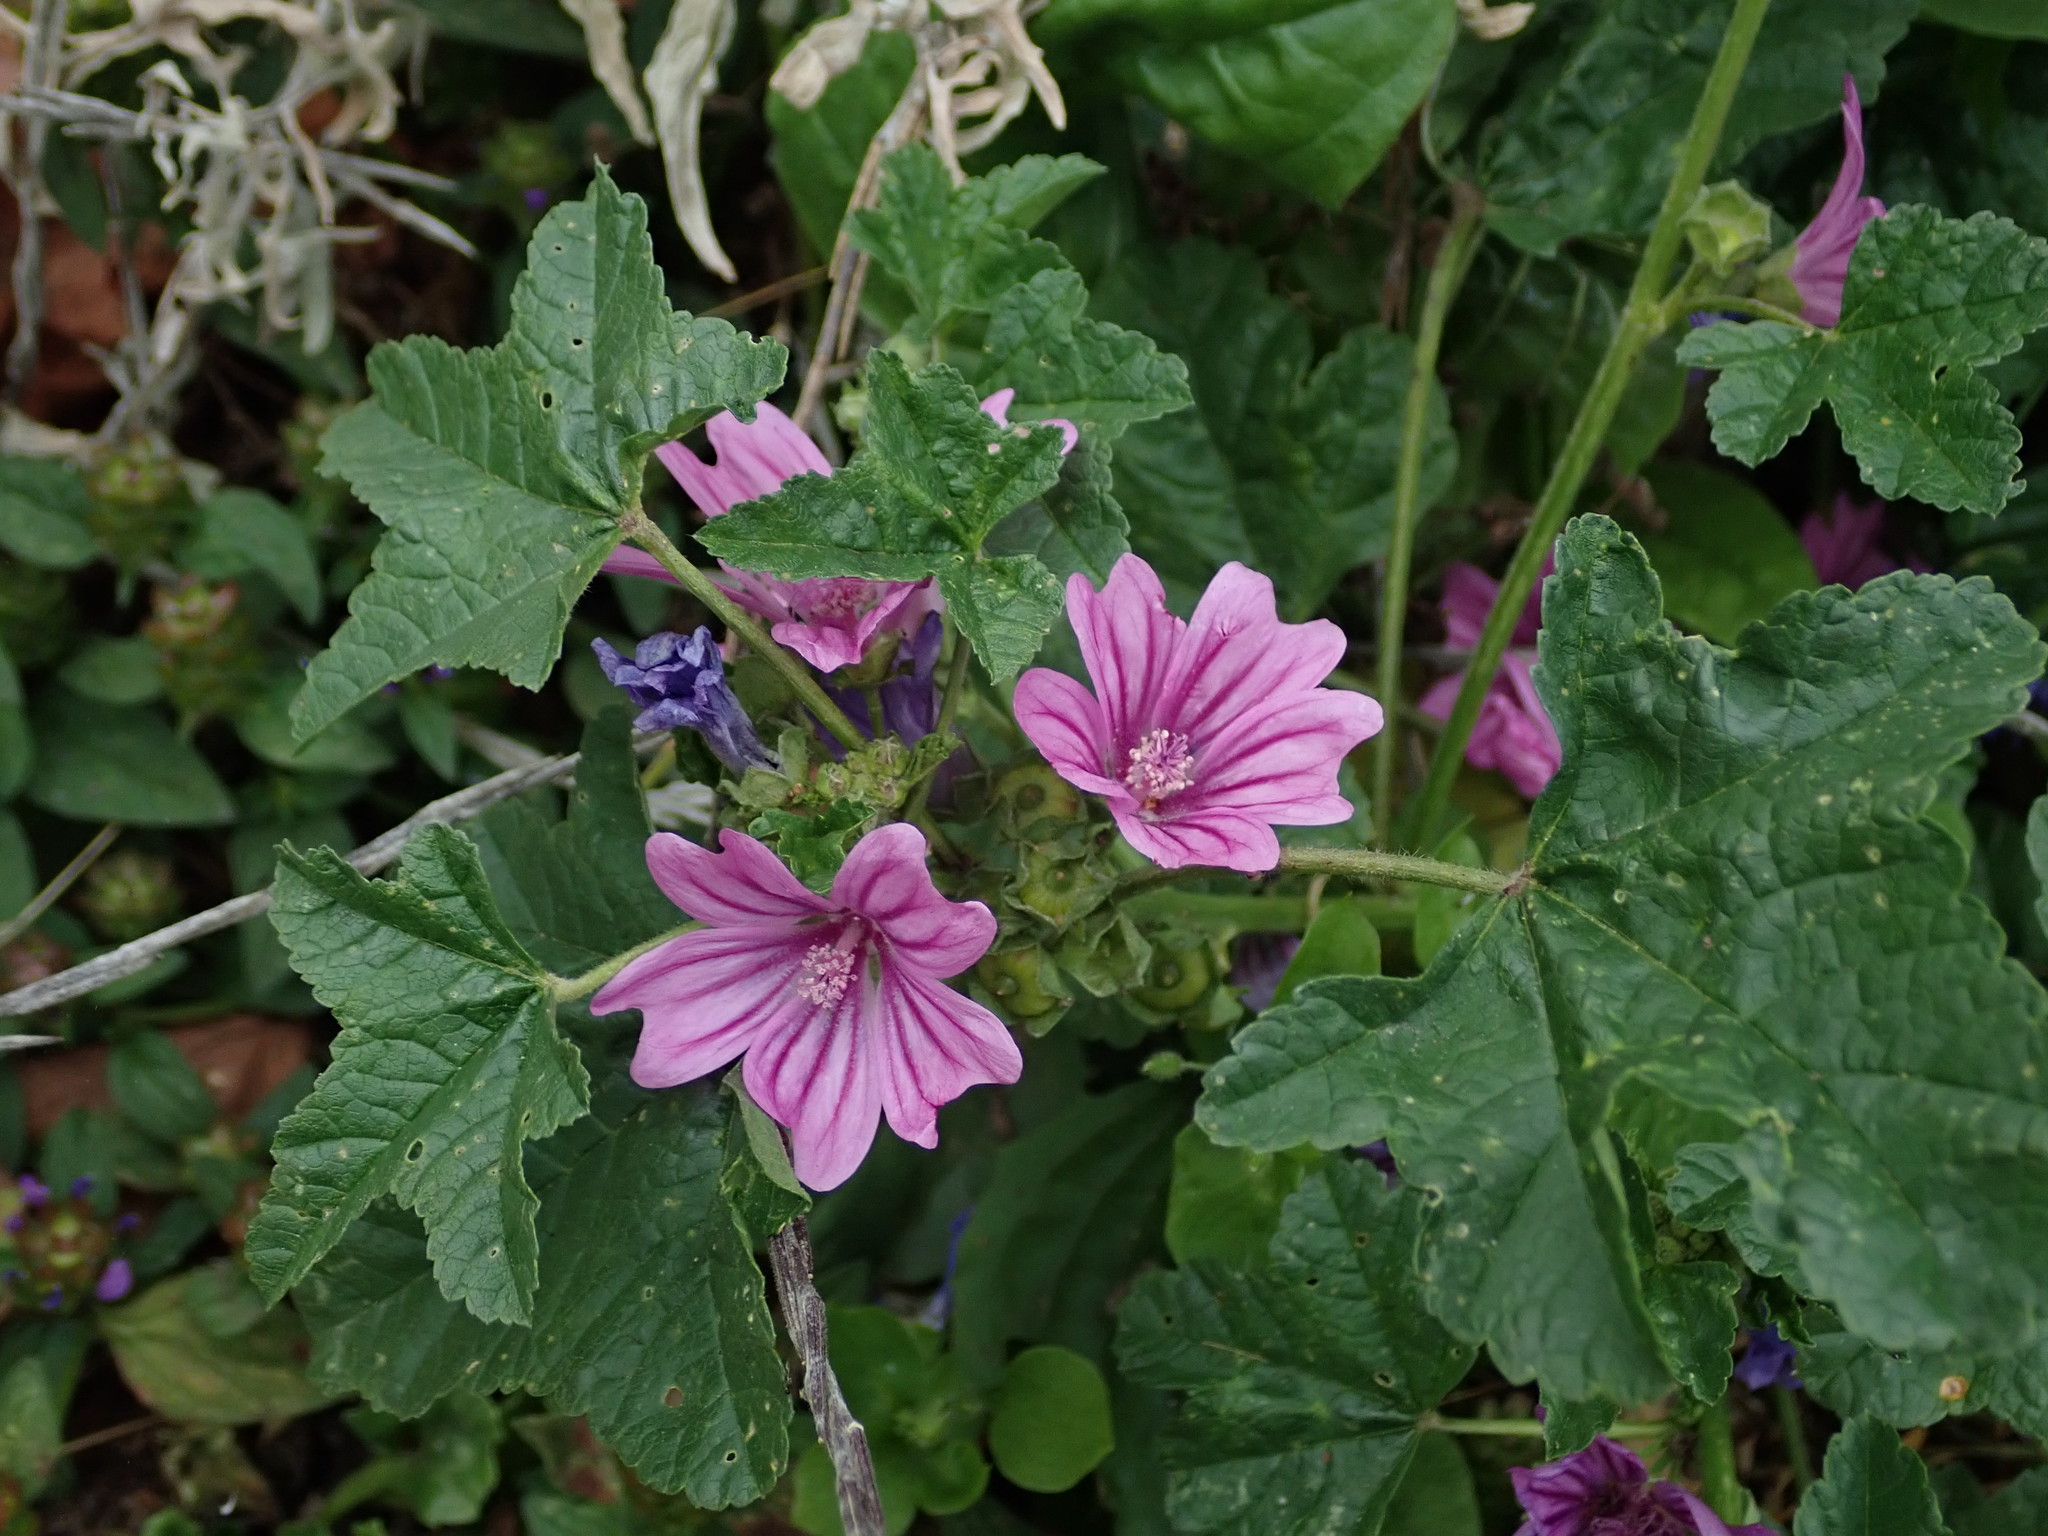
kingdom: Plantae
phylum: Tracheophyta
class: Magnoliopsida
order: Malvales
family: Malvaceae
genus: Malva
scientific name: Malva sylvestris
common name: Common mallow
